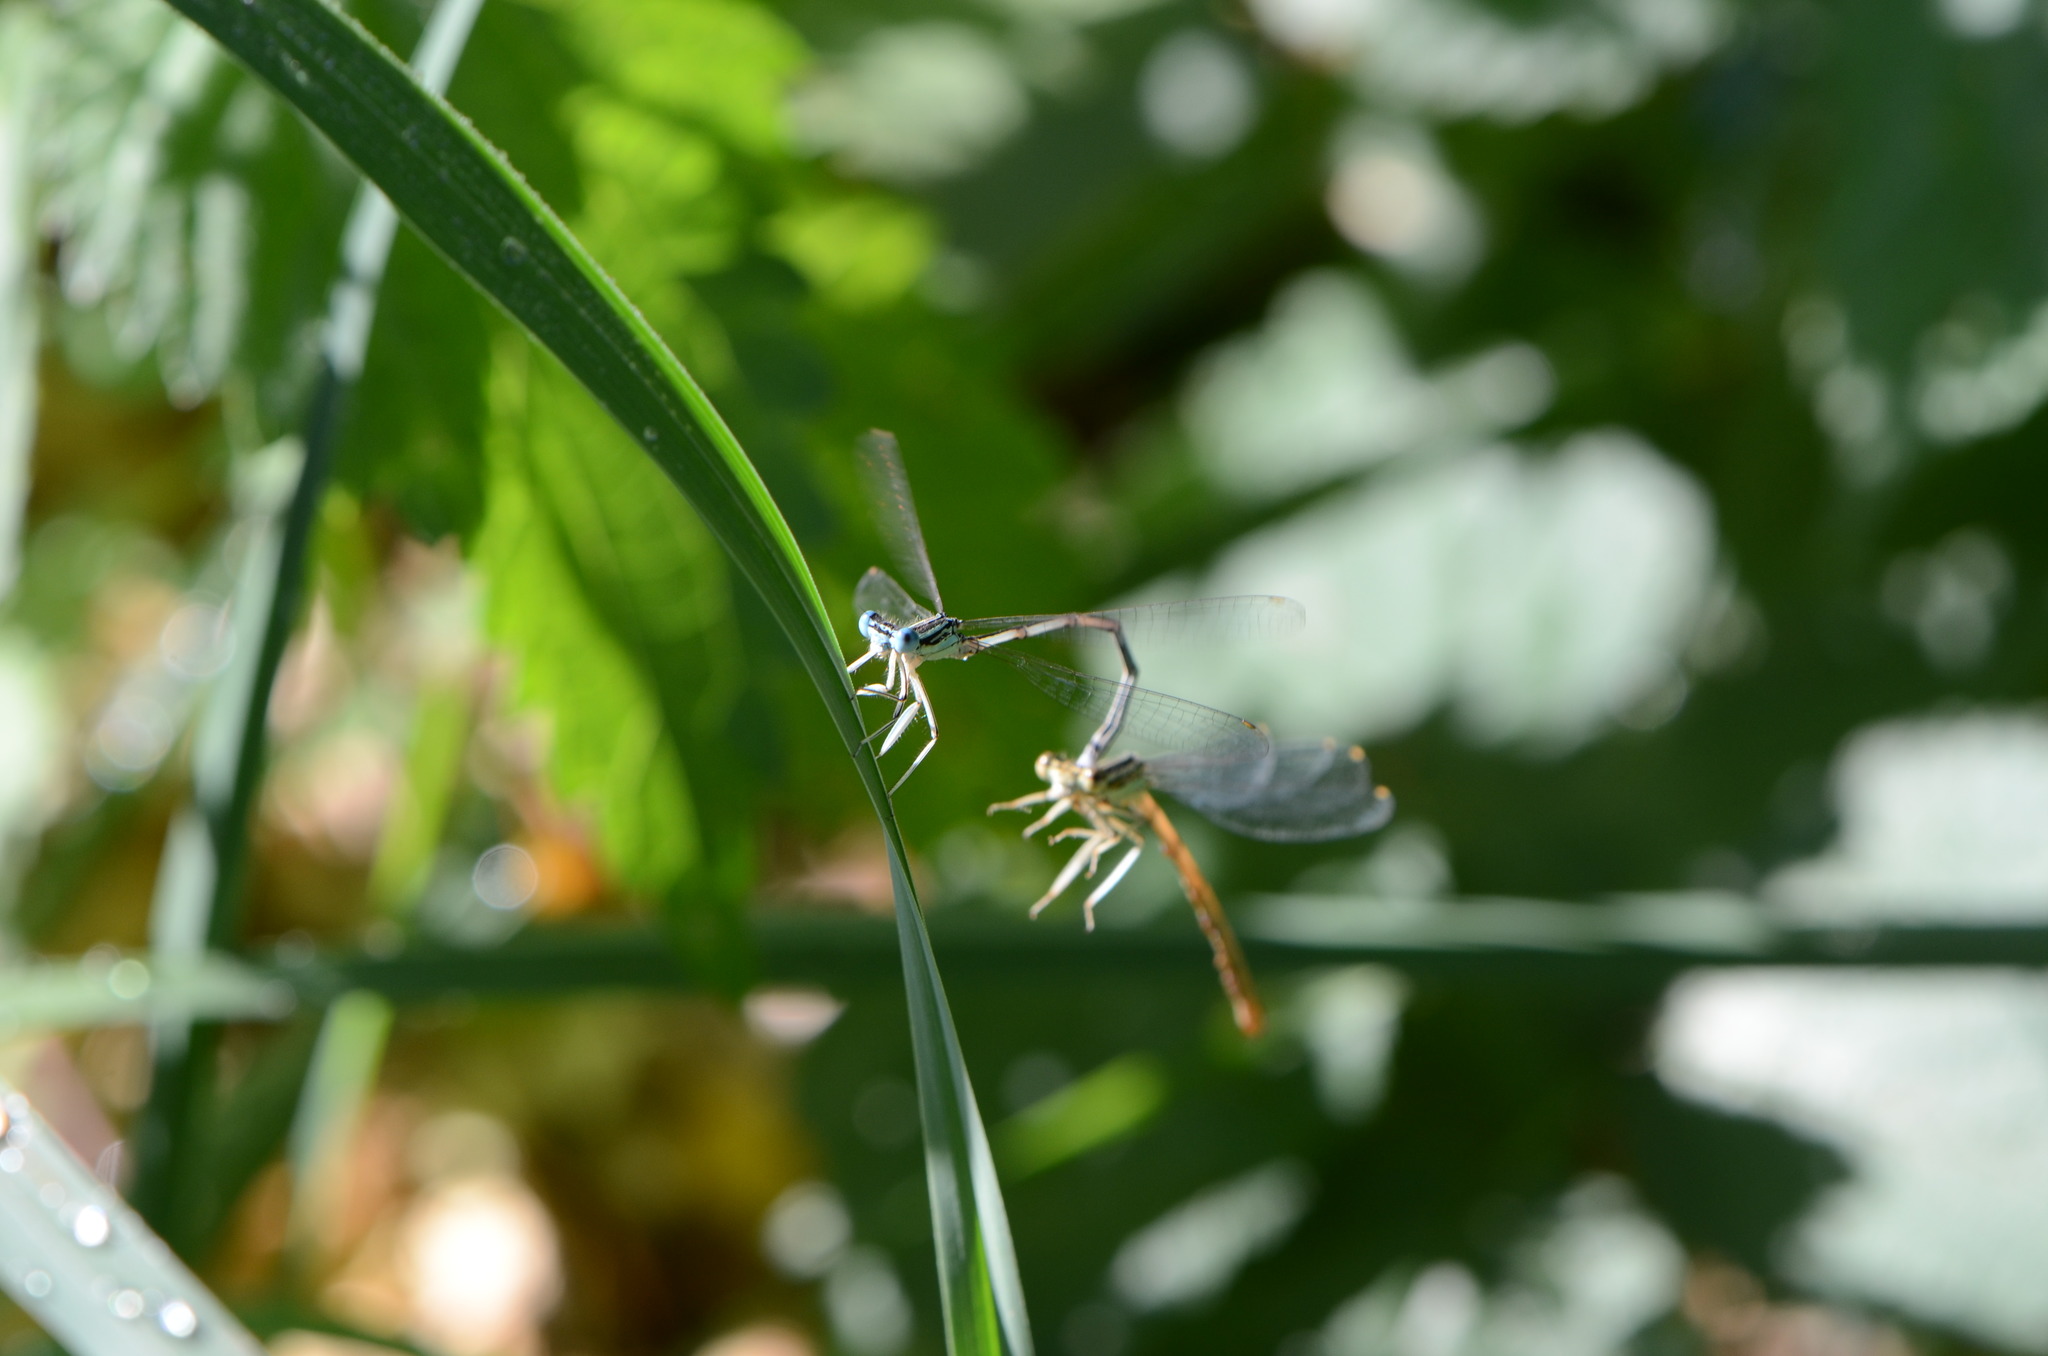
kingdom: Animalia
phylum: Arthropoda
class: Insecta
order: Odonata
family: Platycnemididae
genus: Platycnemis
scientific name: Platycnemis pennipes
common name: White-legged damselfly
